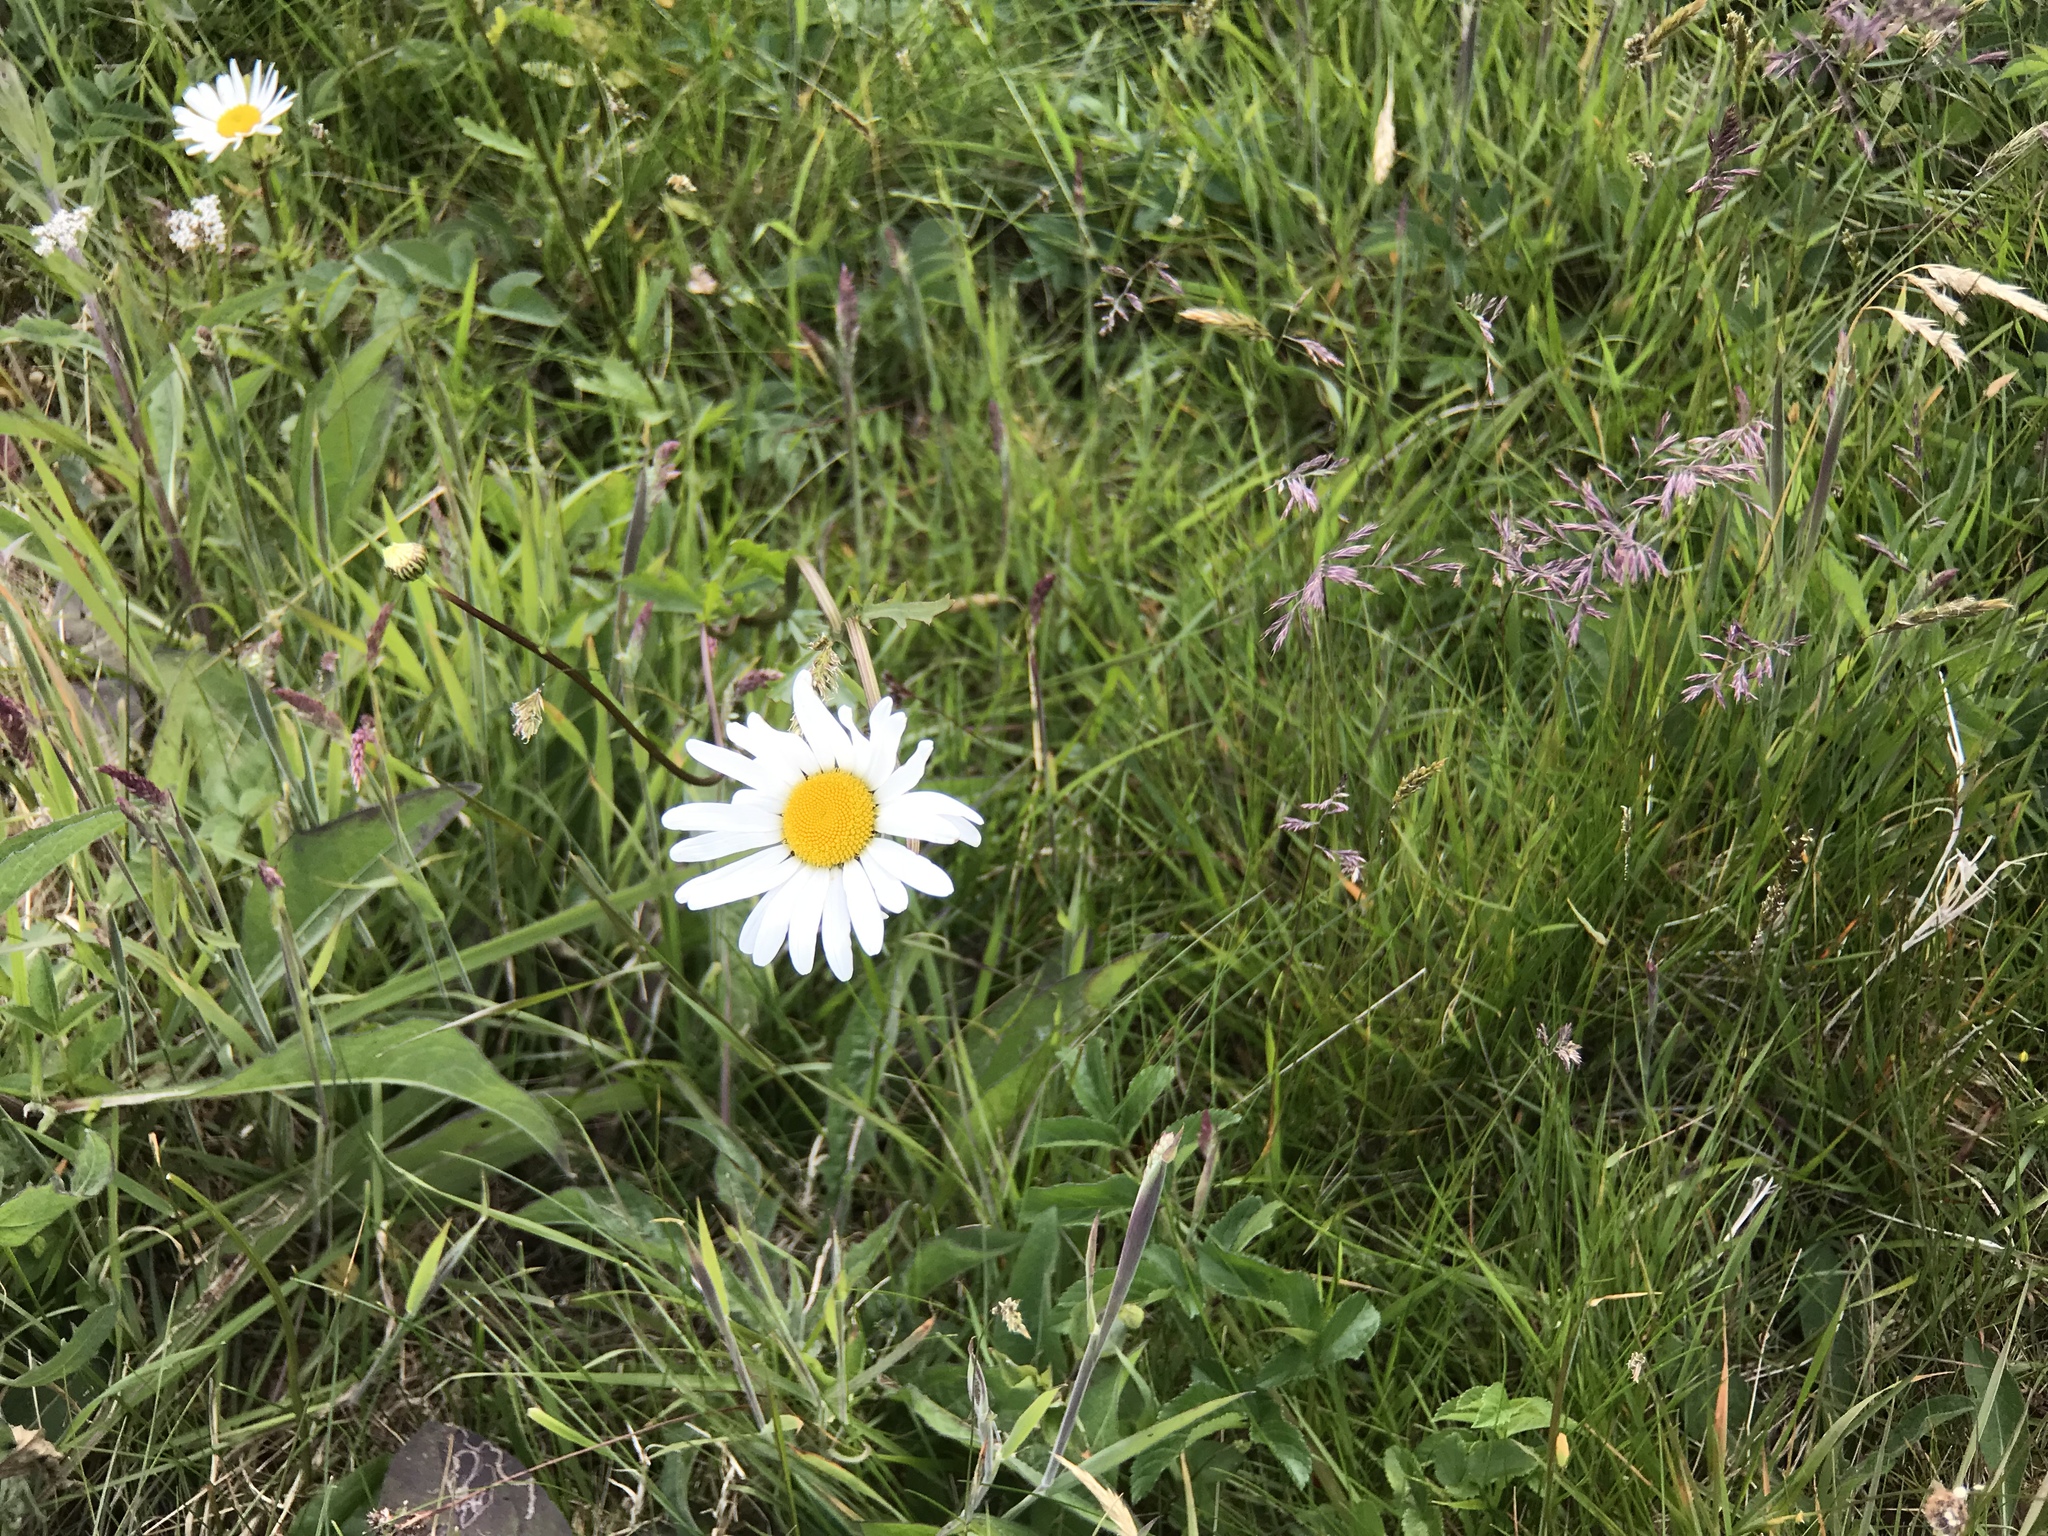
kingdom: Plantae
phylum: Tracheophyta
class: Magnoliopsida
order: Asterales
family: Asteraceae
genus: Leucanthemum
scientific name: Leucanthemum vulgare
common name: Oxeye daisy
